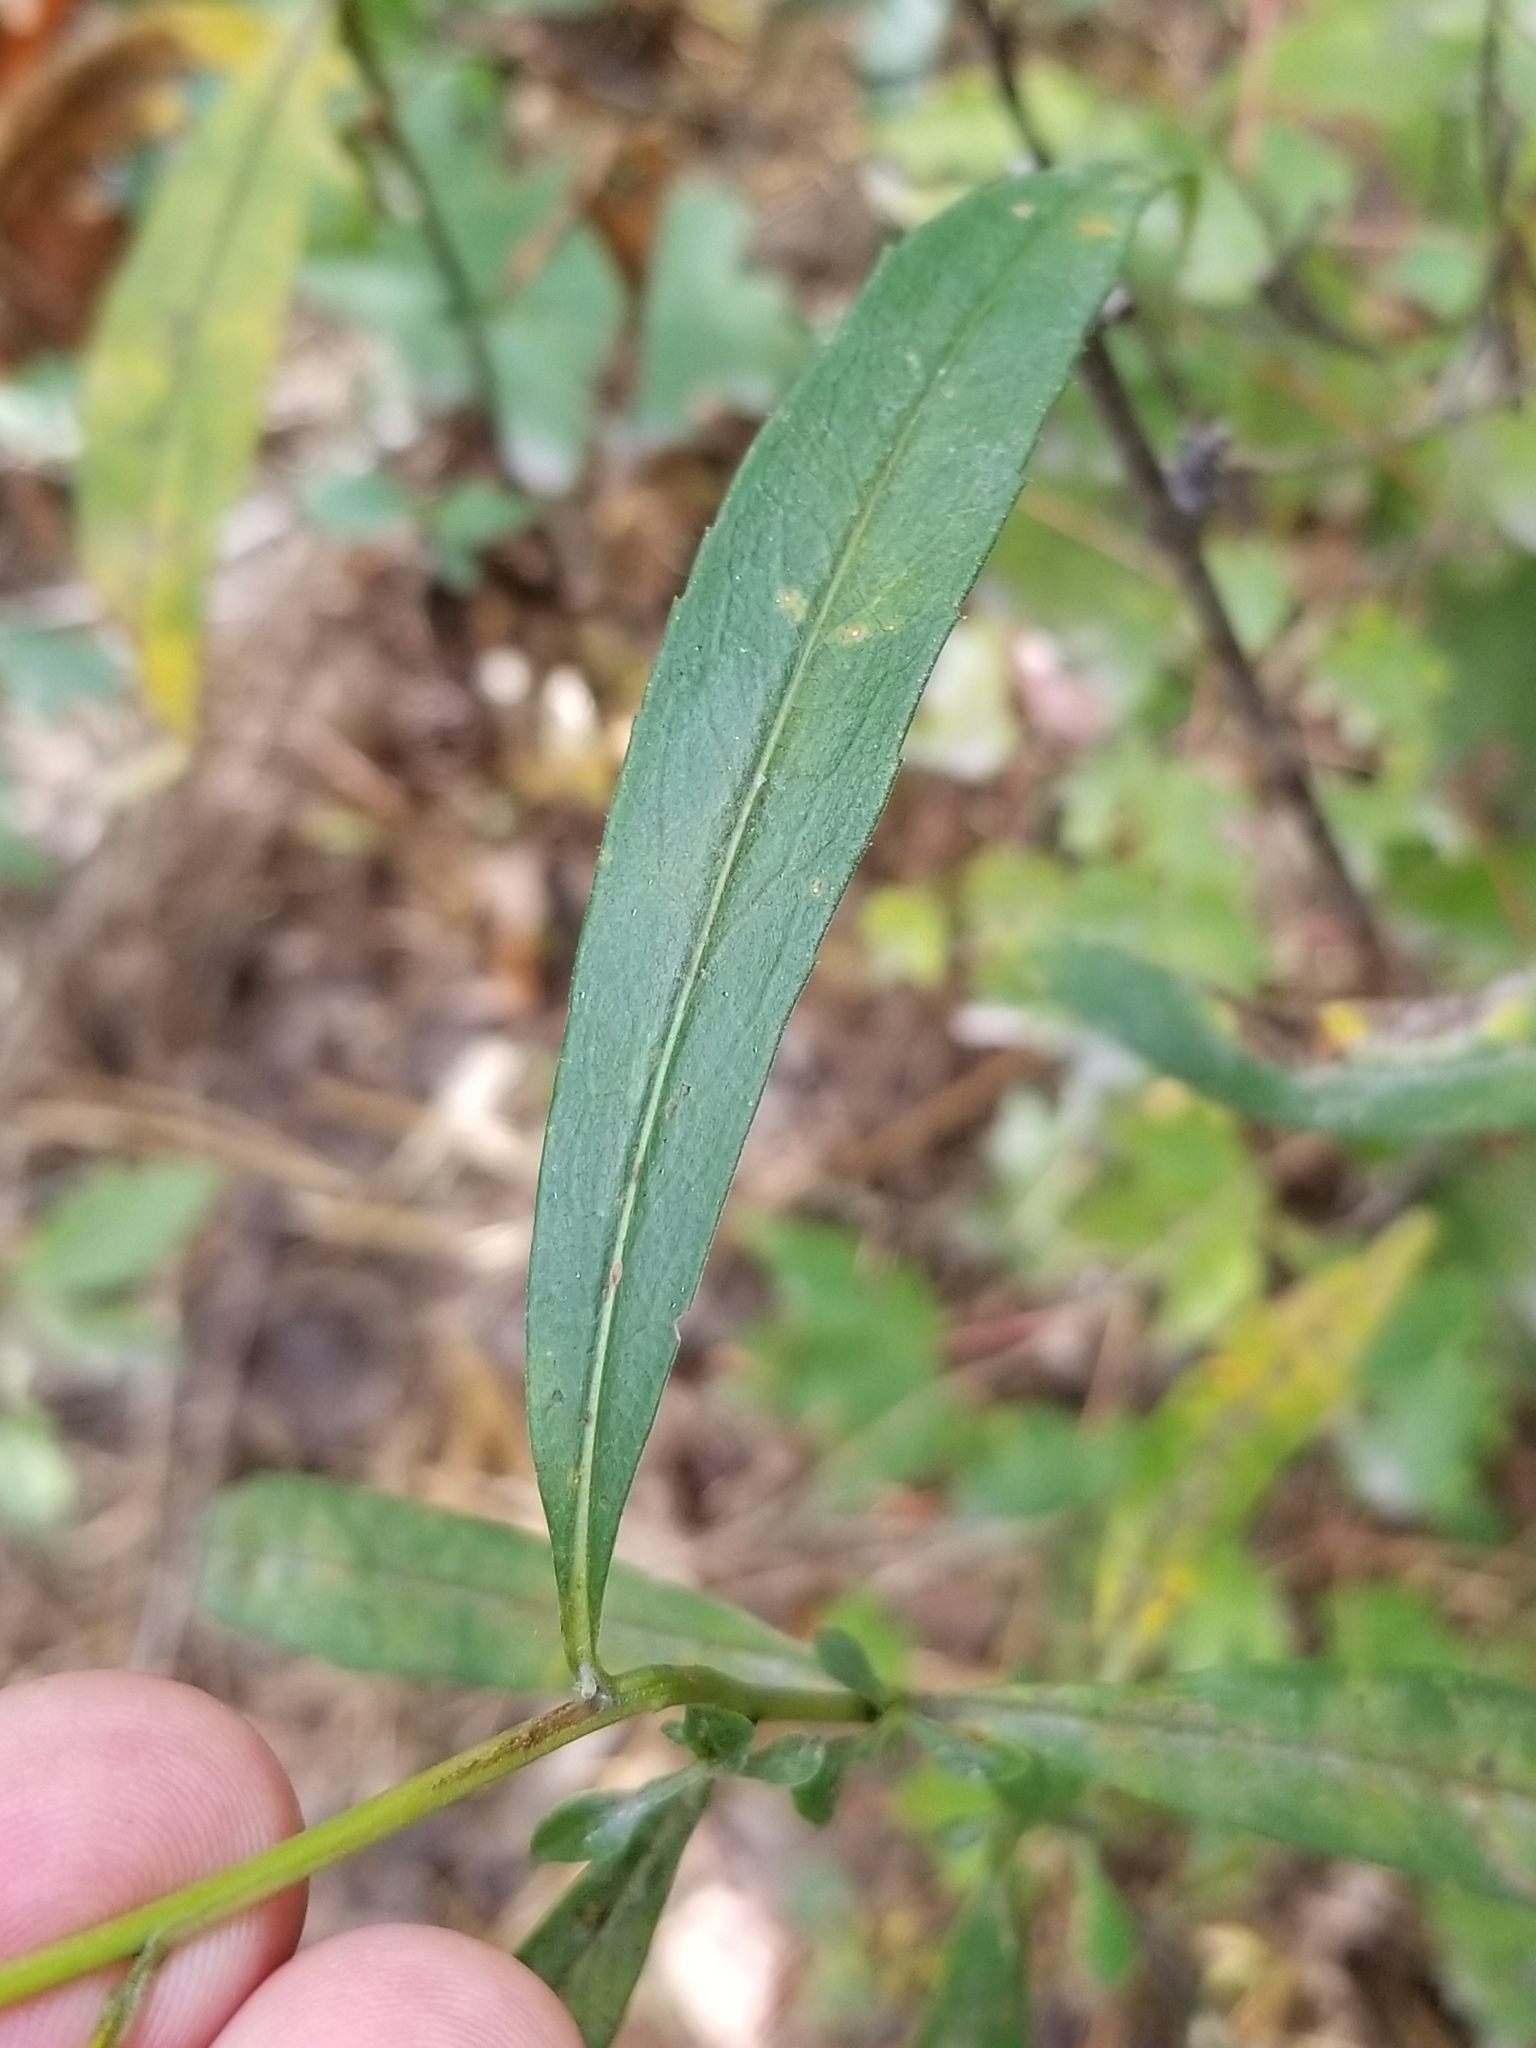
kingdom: Plantae
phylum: Tracheophyta
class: Magnoliopsida
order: Asterales
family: Asteraceae
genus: Symphyotrichum
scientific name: Symphyotrichum lanceolatum
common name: Panicled aster
